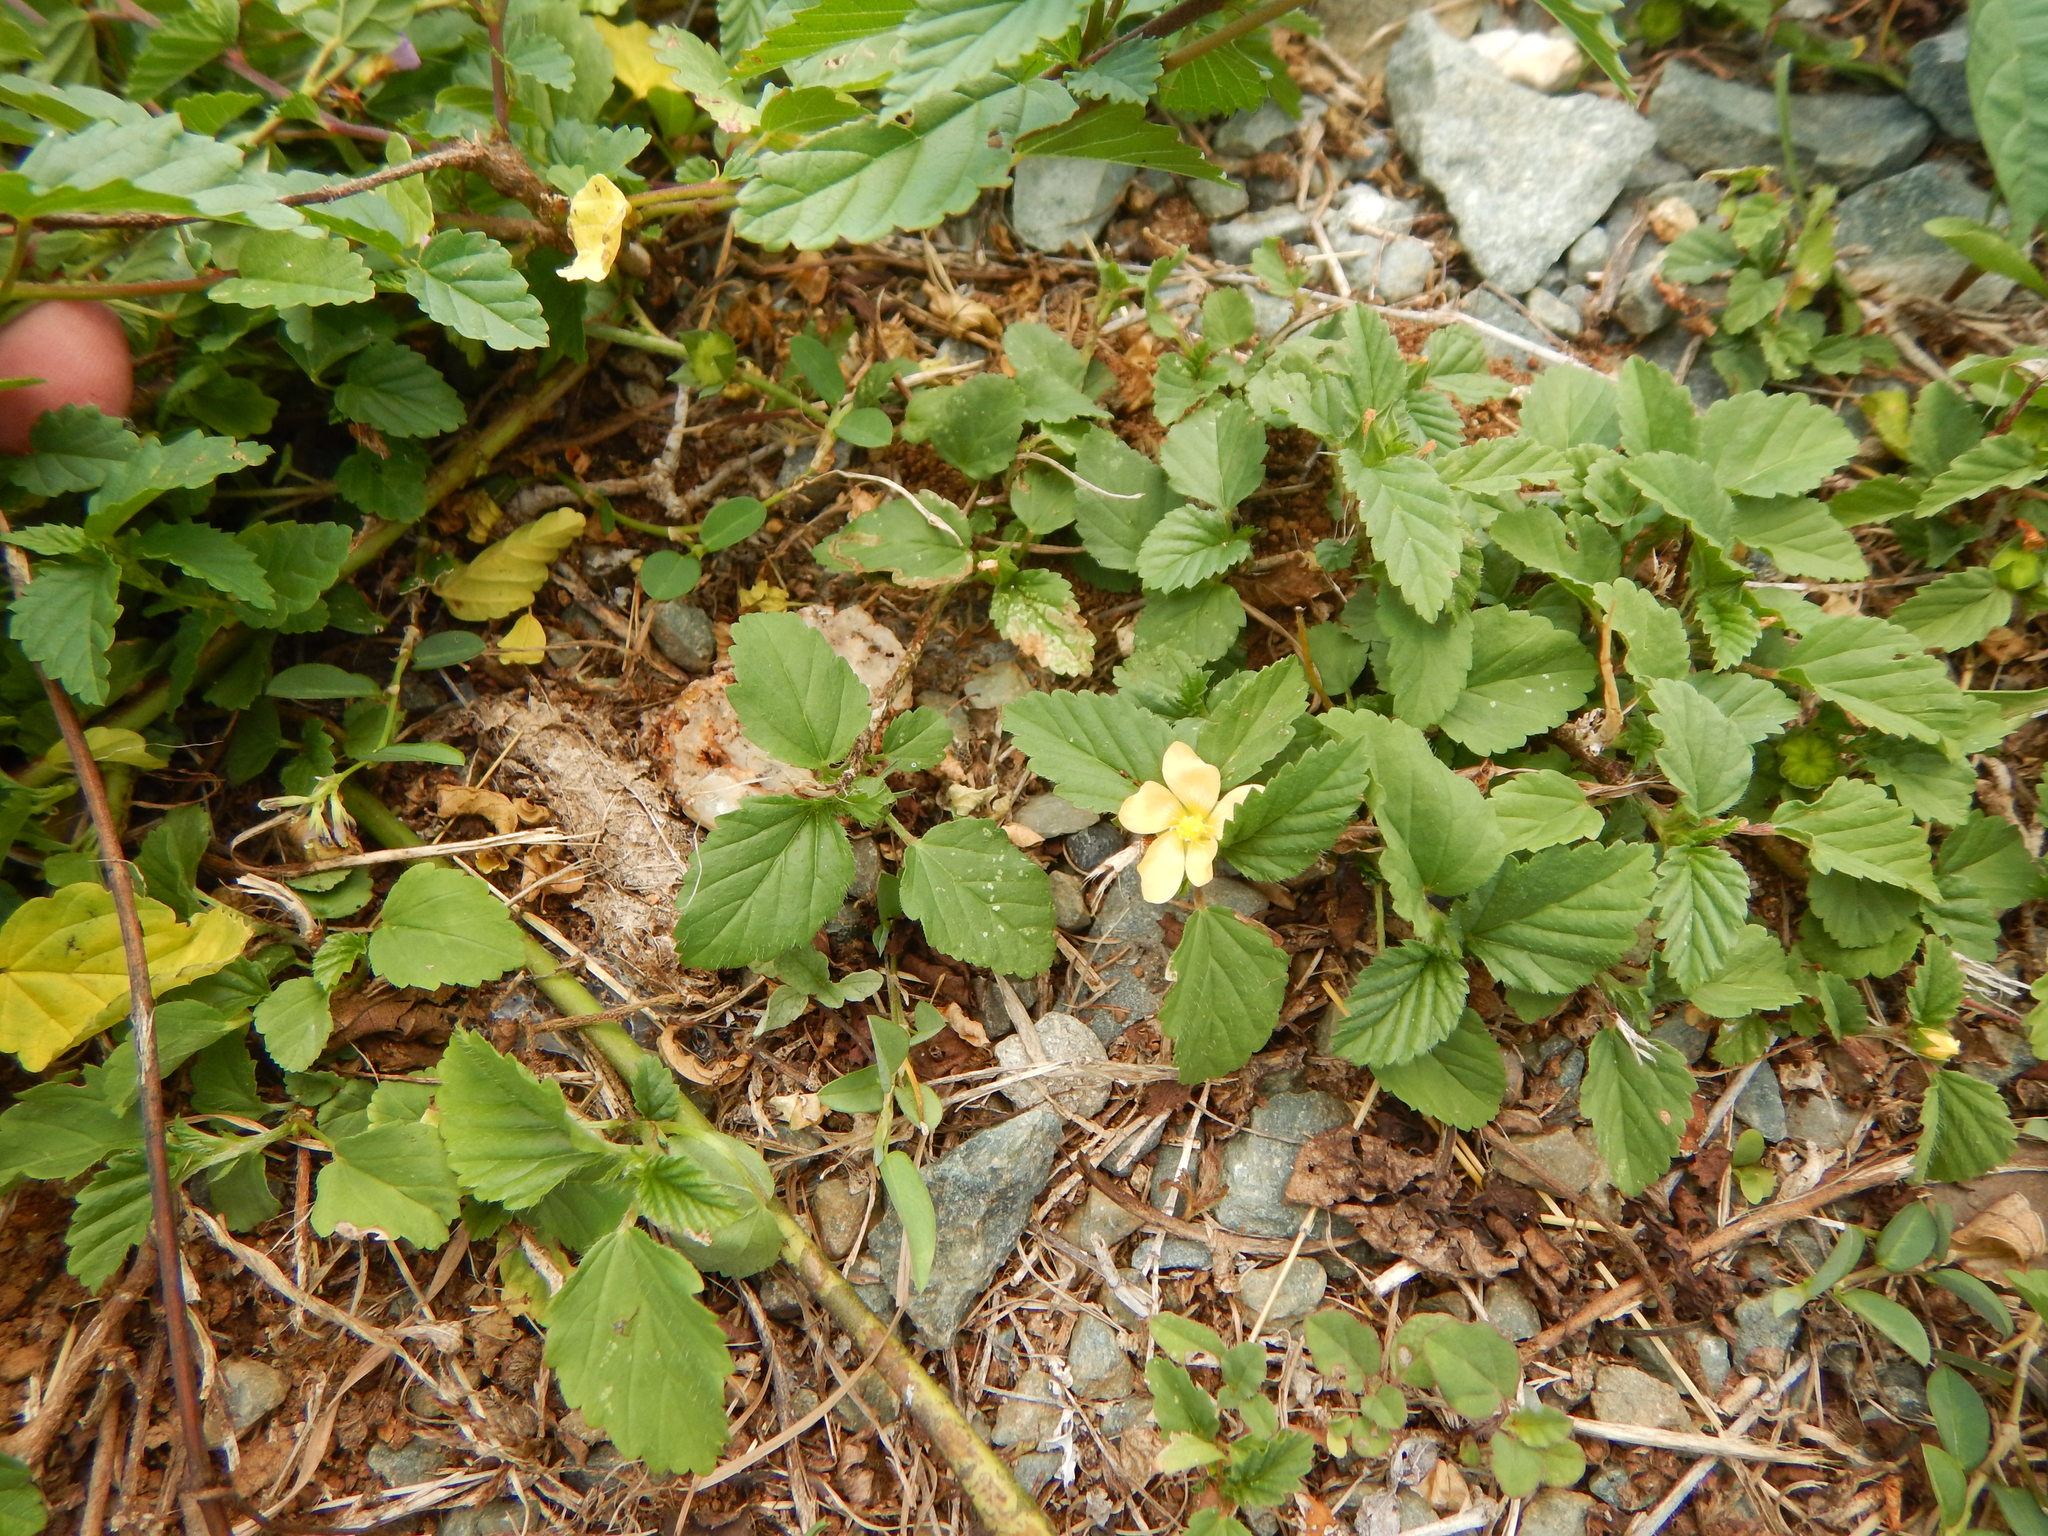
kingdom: Plantae
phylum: Tracheophyta
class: Magnoliopsida
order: Malvales
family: Malvaceae
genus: Malvastrum
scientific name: Malvastrum coromandelianum
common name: Threelobe false mallow
